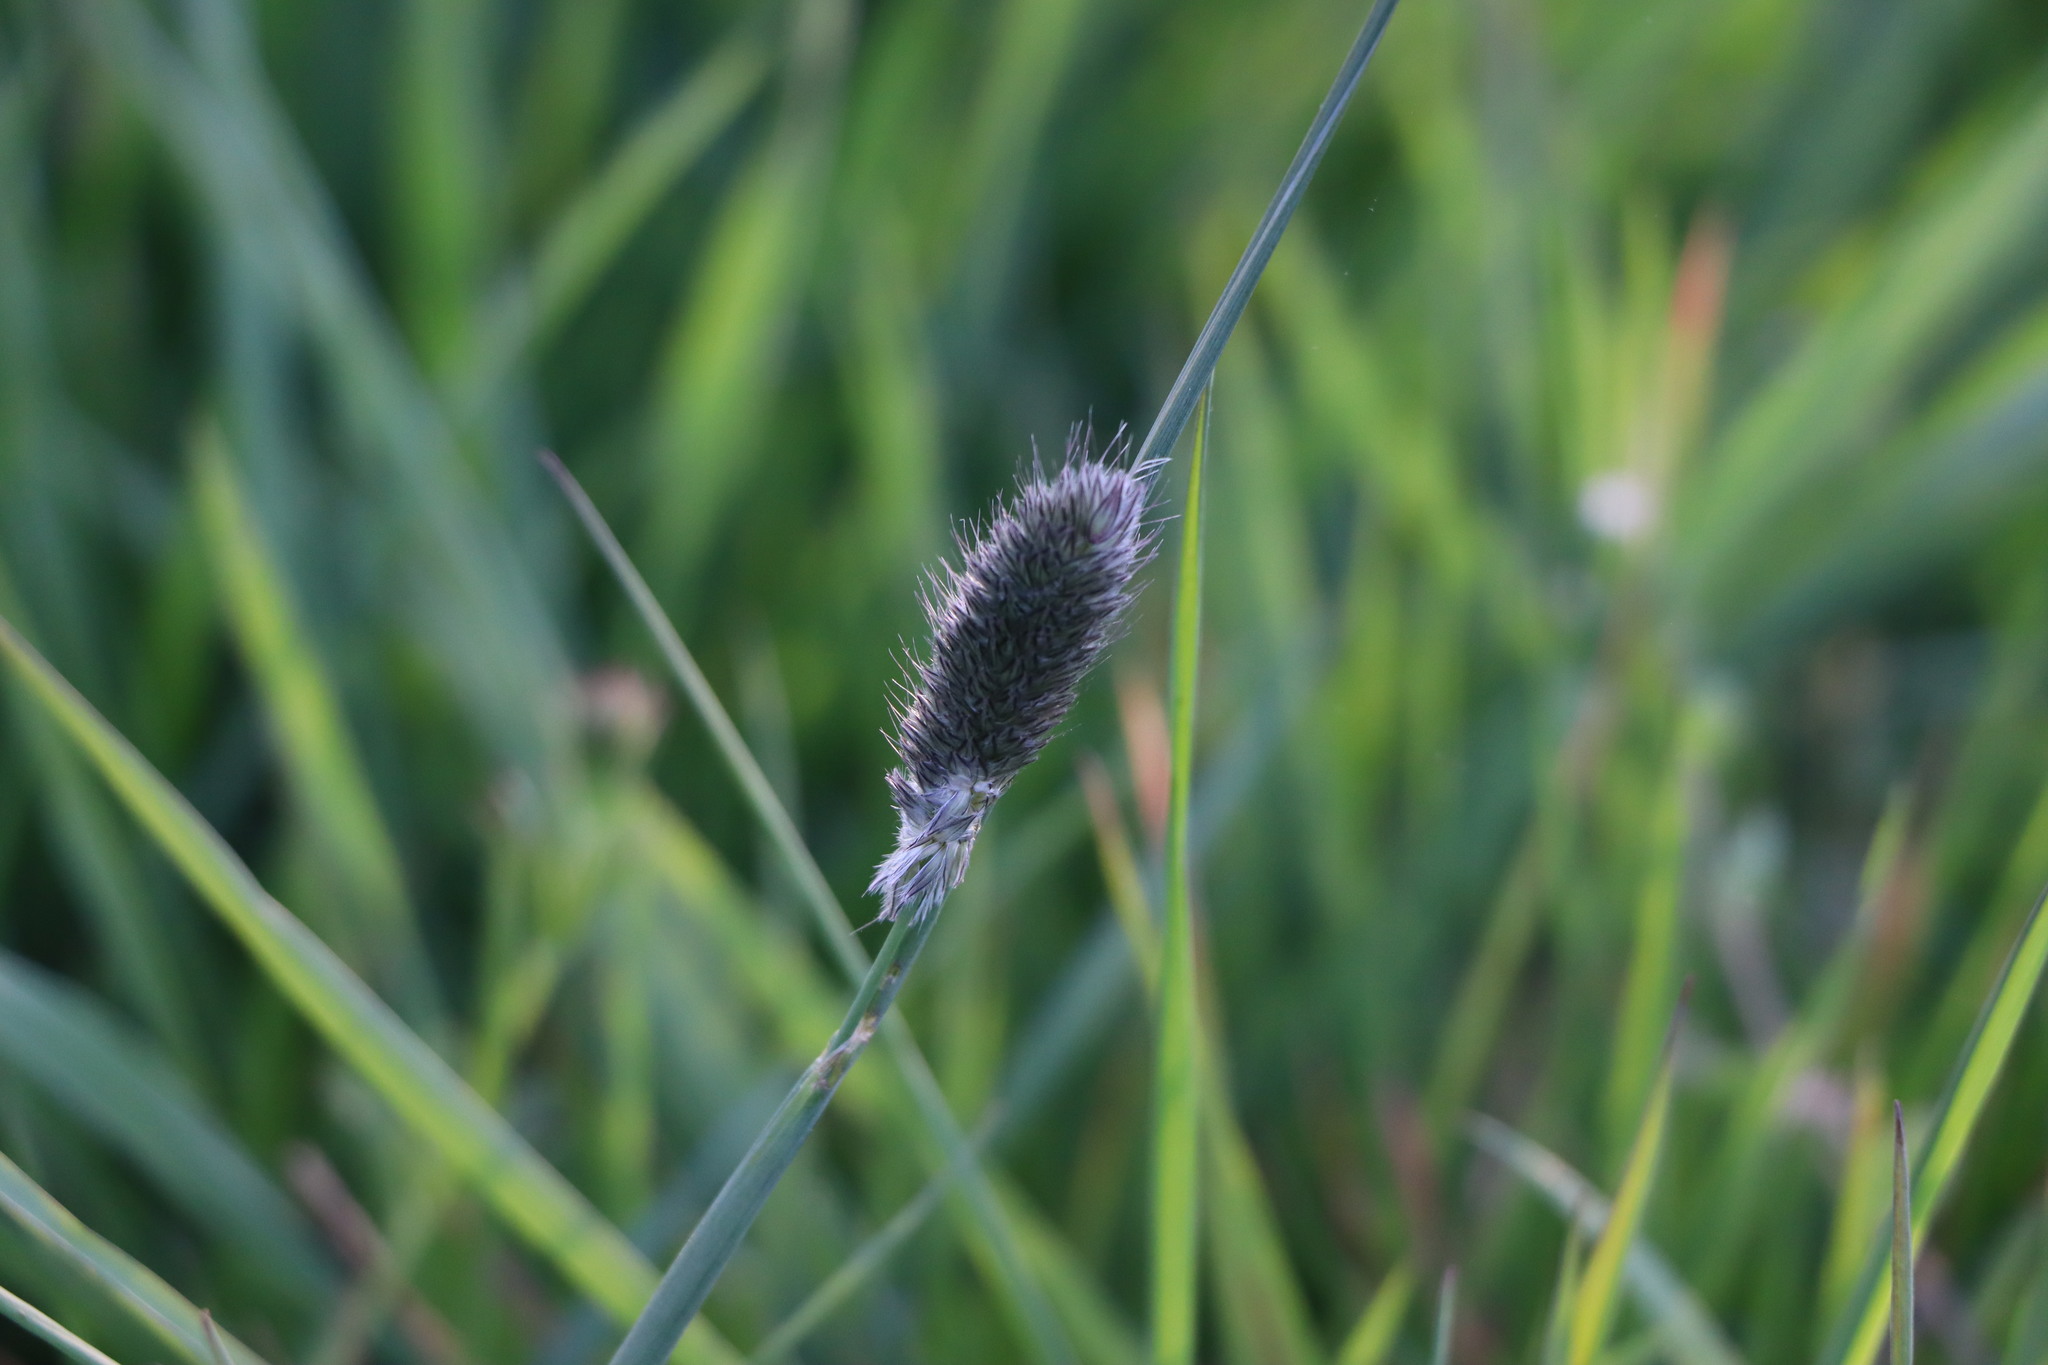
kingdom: Plantae
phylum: Tracheophyta
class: Liliopsida
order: Poales
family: Poaceae
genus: Alopecurus
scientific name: Alopecurus pratensis
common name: Meadow foxtail
